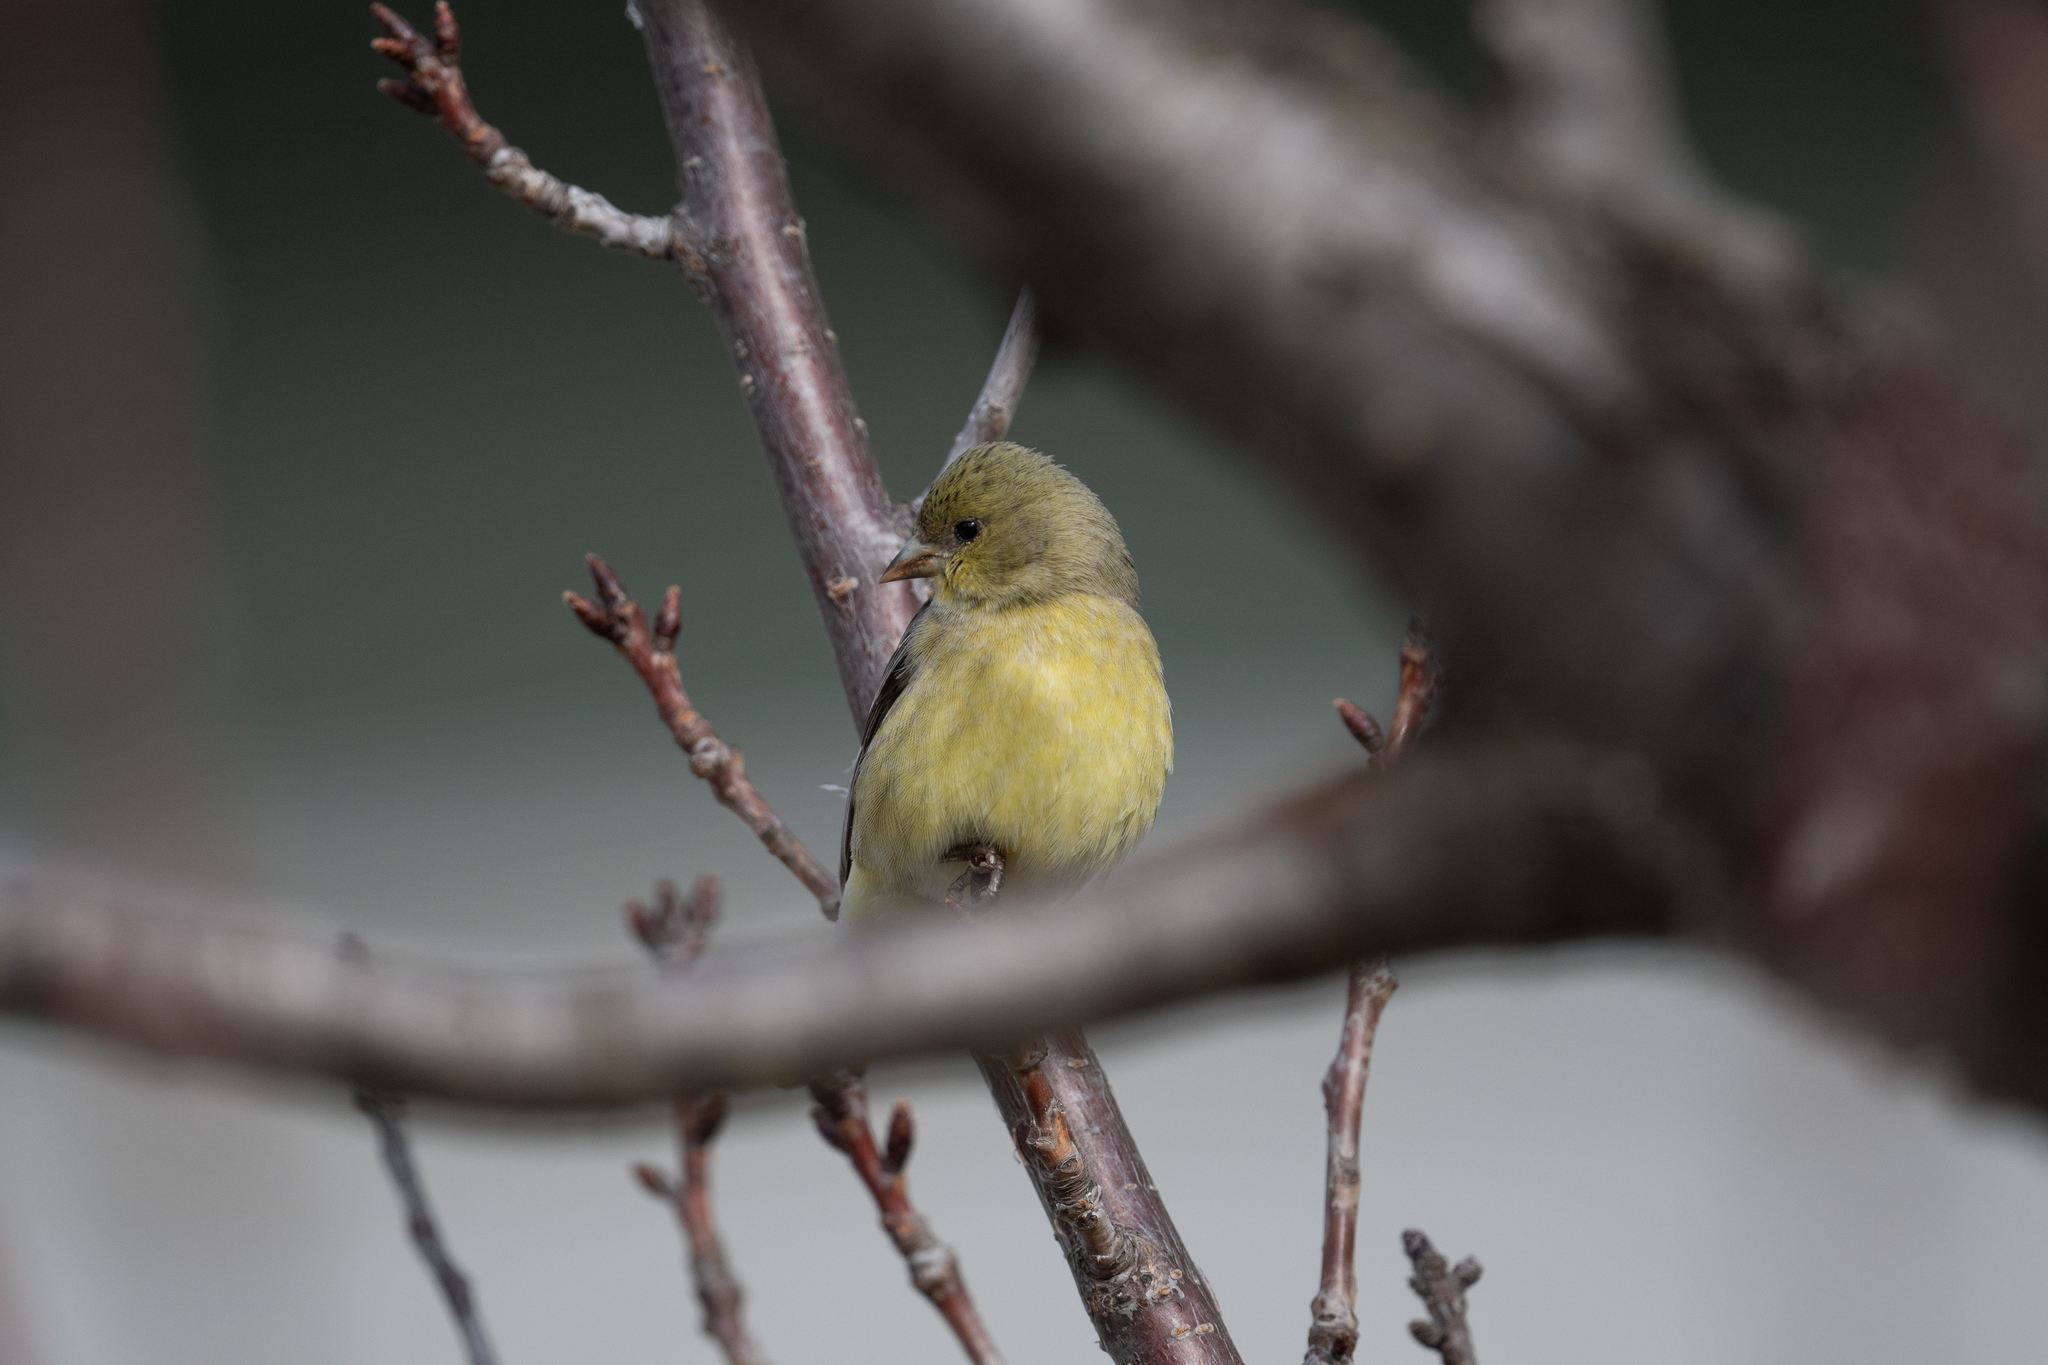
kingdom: Animalia
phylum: Chordata
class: Aves
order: Passeriformes
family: Fringillidae
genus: Spinus
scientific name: Spinus psaltria
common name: Lesser goldfinch
